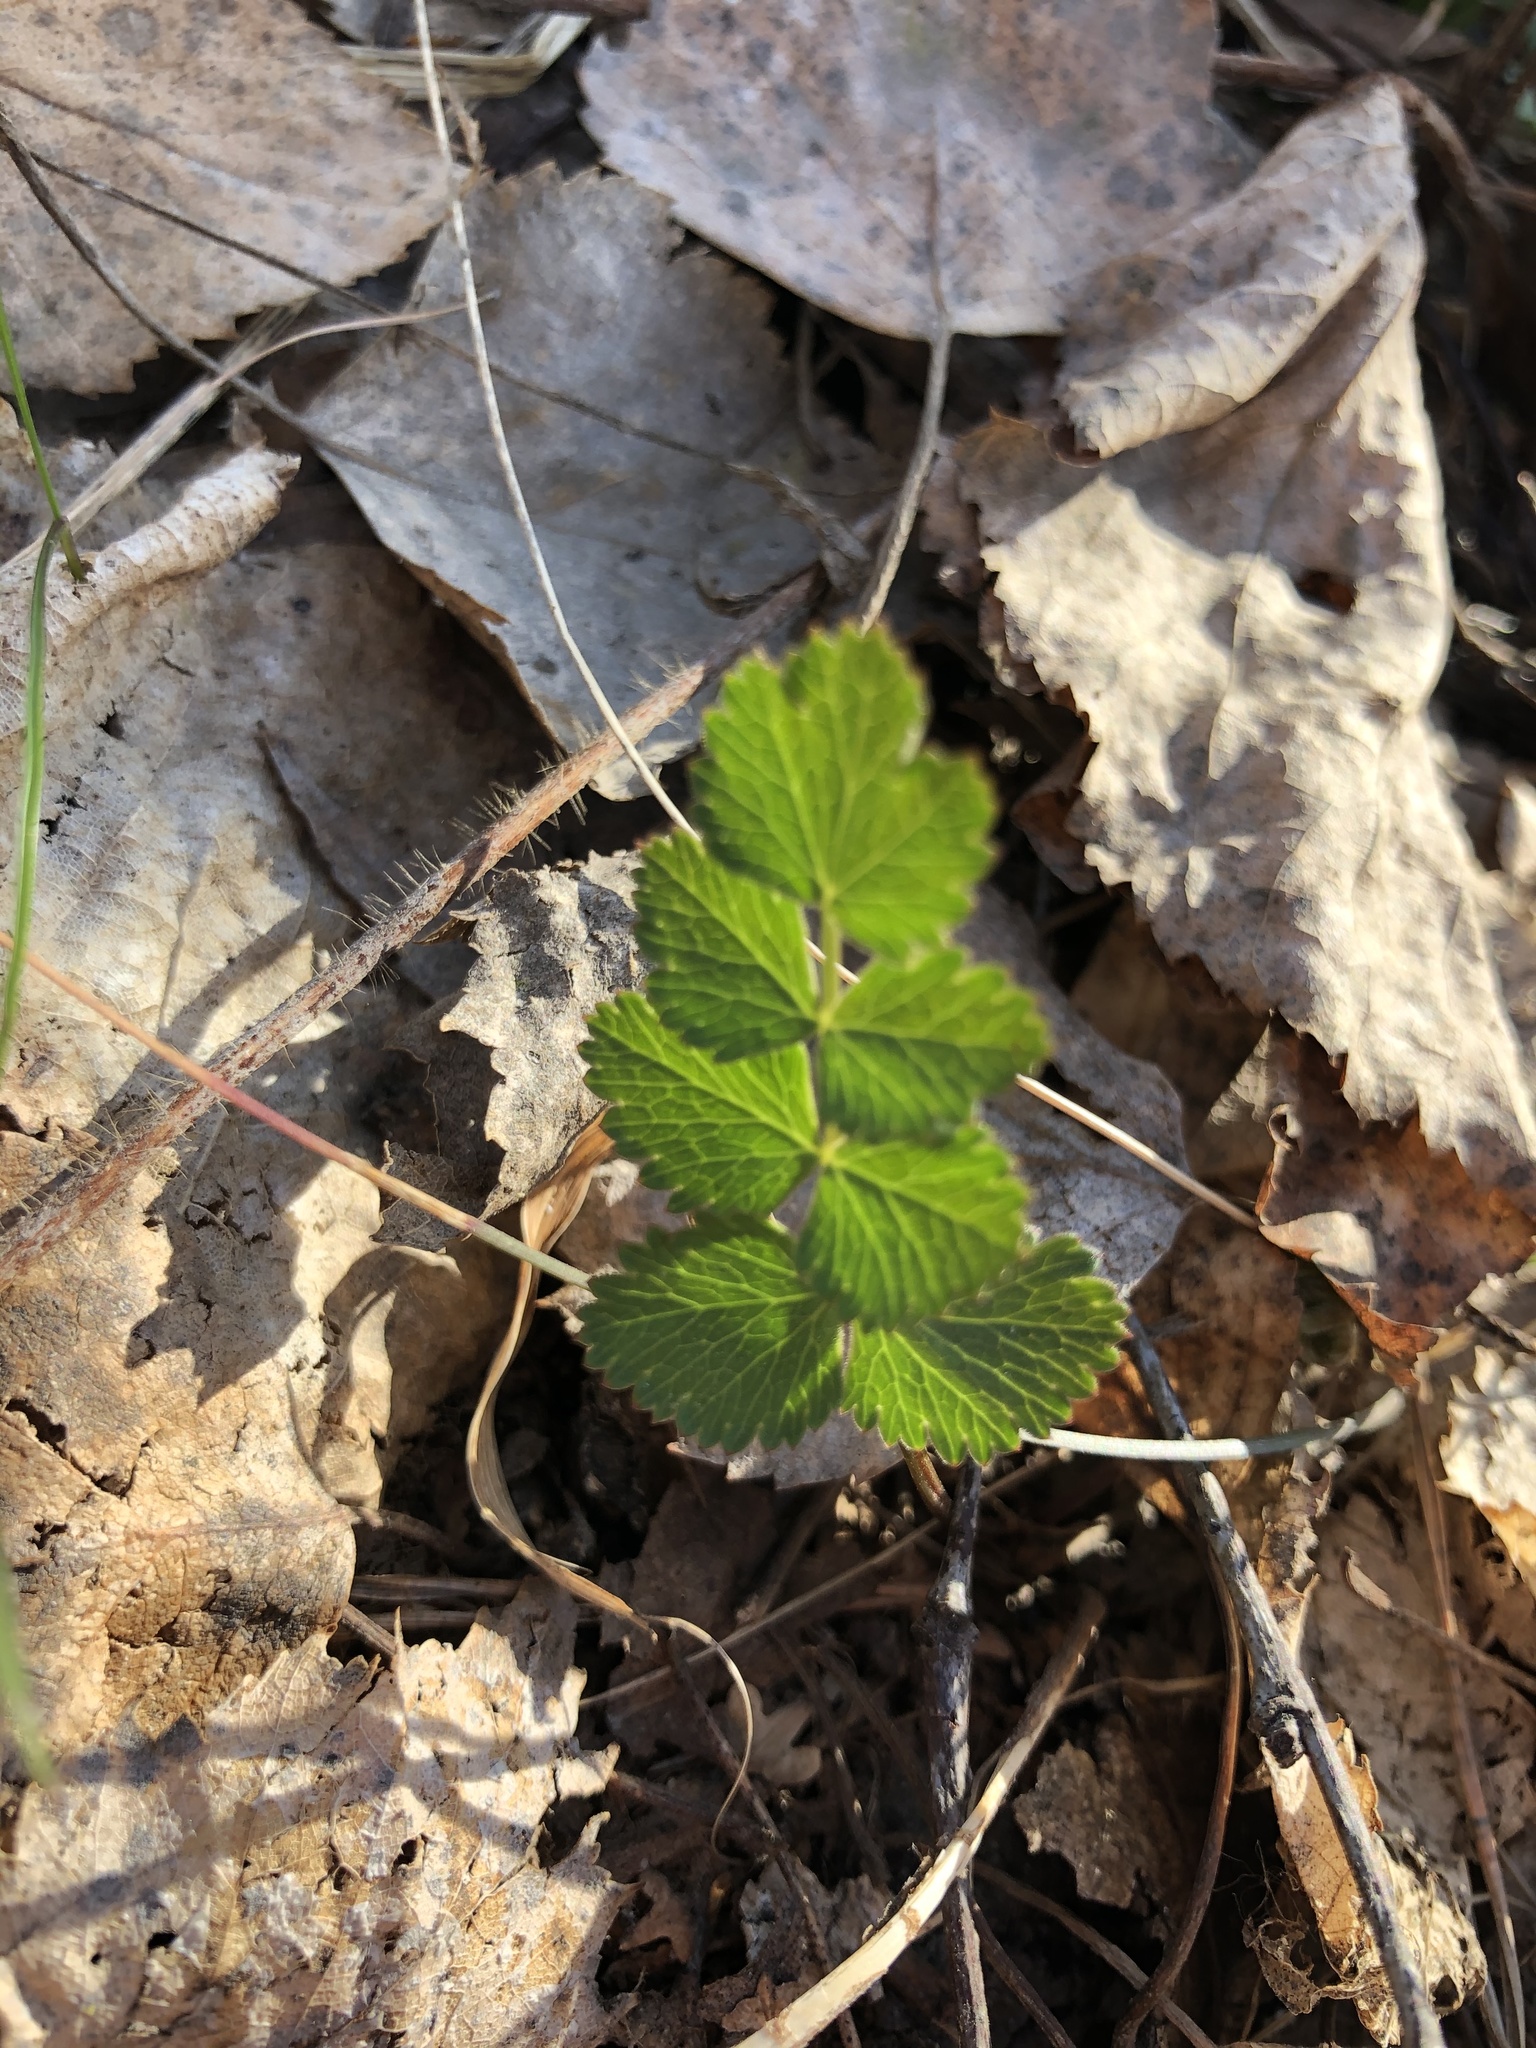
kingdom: Plantae
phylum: Tracheophyta
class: Magnoliopsida
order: Apiales
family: Apiaceae
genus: Pimpinella
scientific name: Pimpinella saxifraga
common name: Burnet-saxifrage
